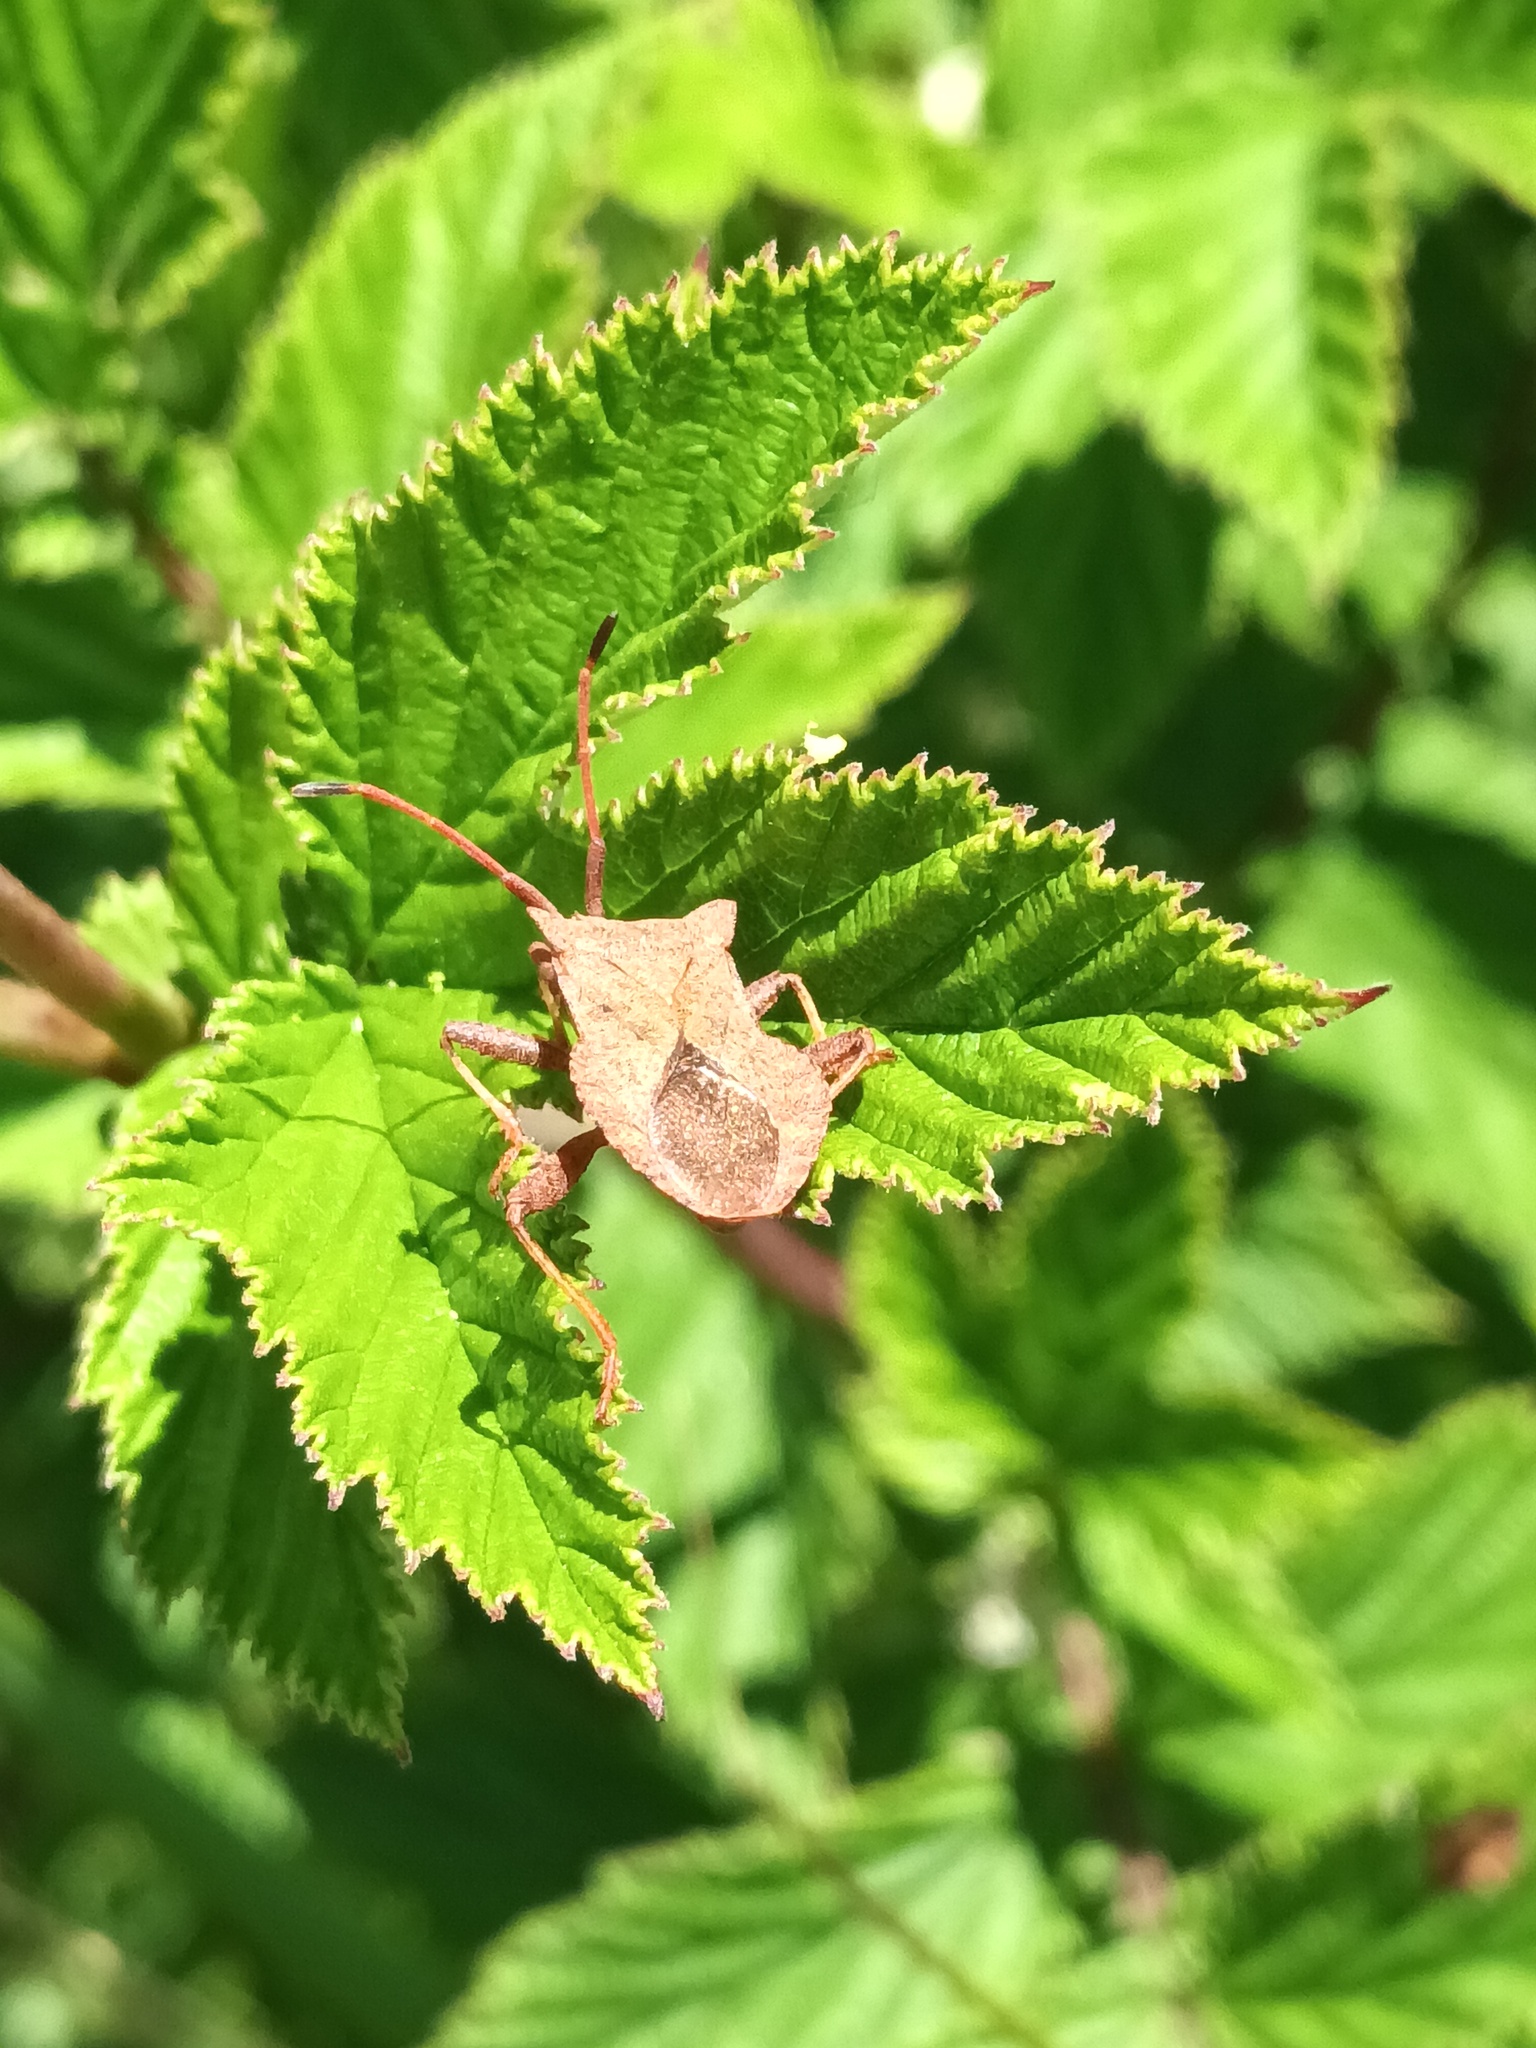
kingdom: Animalia
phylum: Arthropoda
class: Insecta
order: Hemiptera
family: Coreidae
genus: Coreus
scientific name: Coreus marginatus
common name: Dock bug
